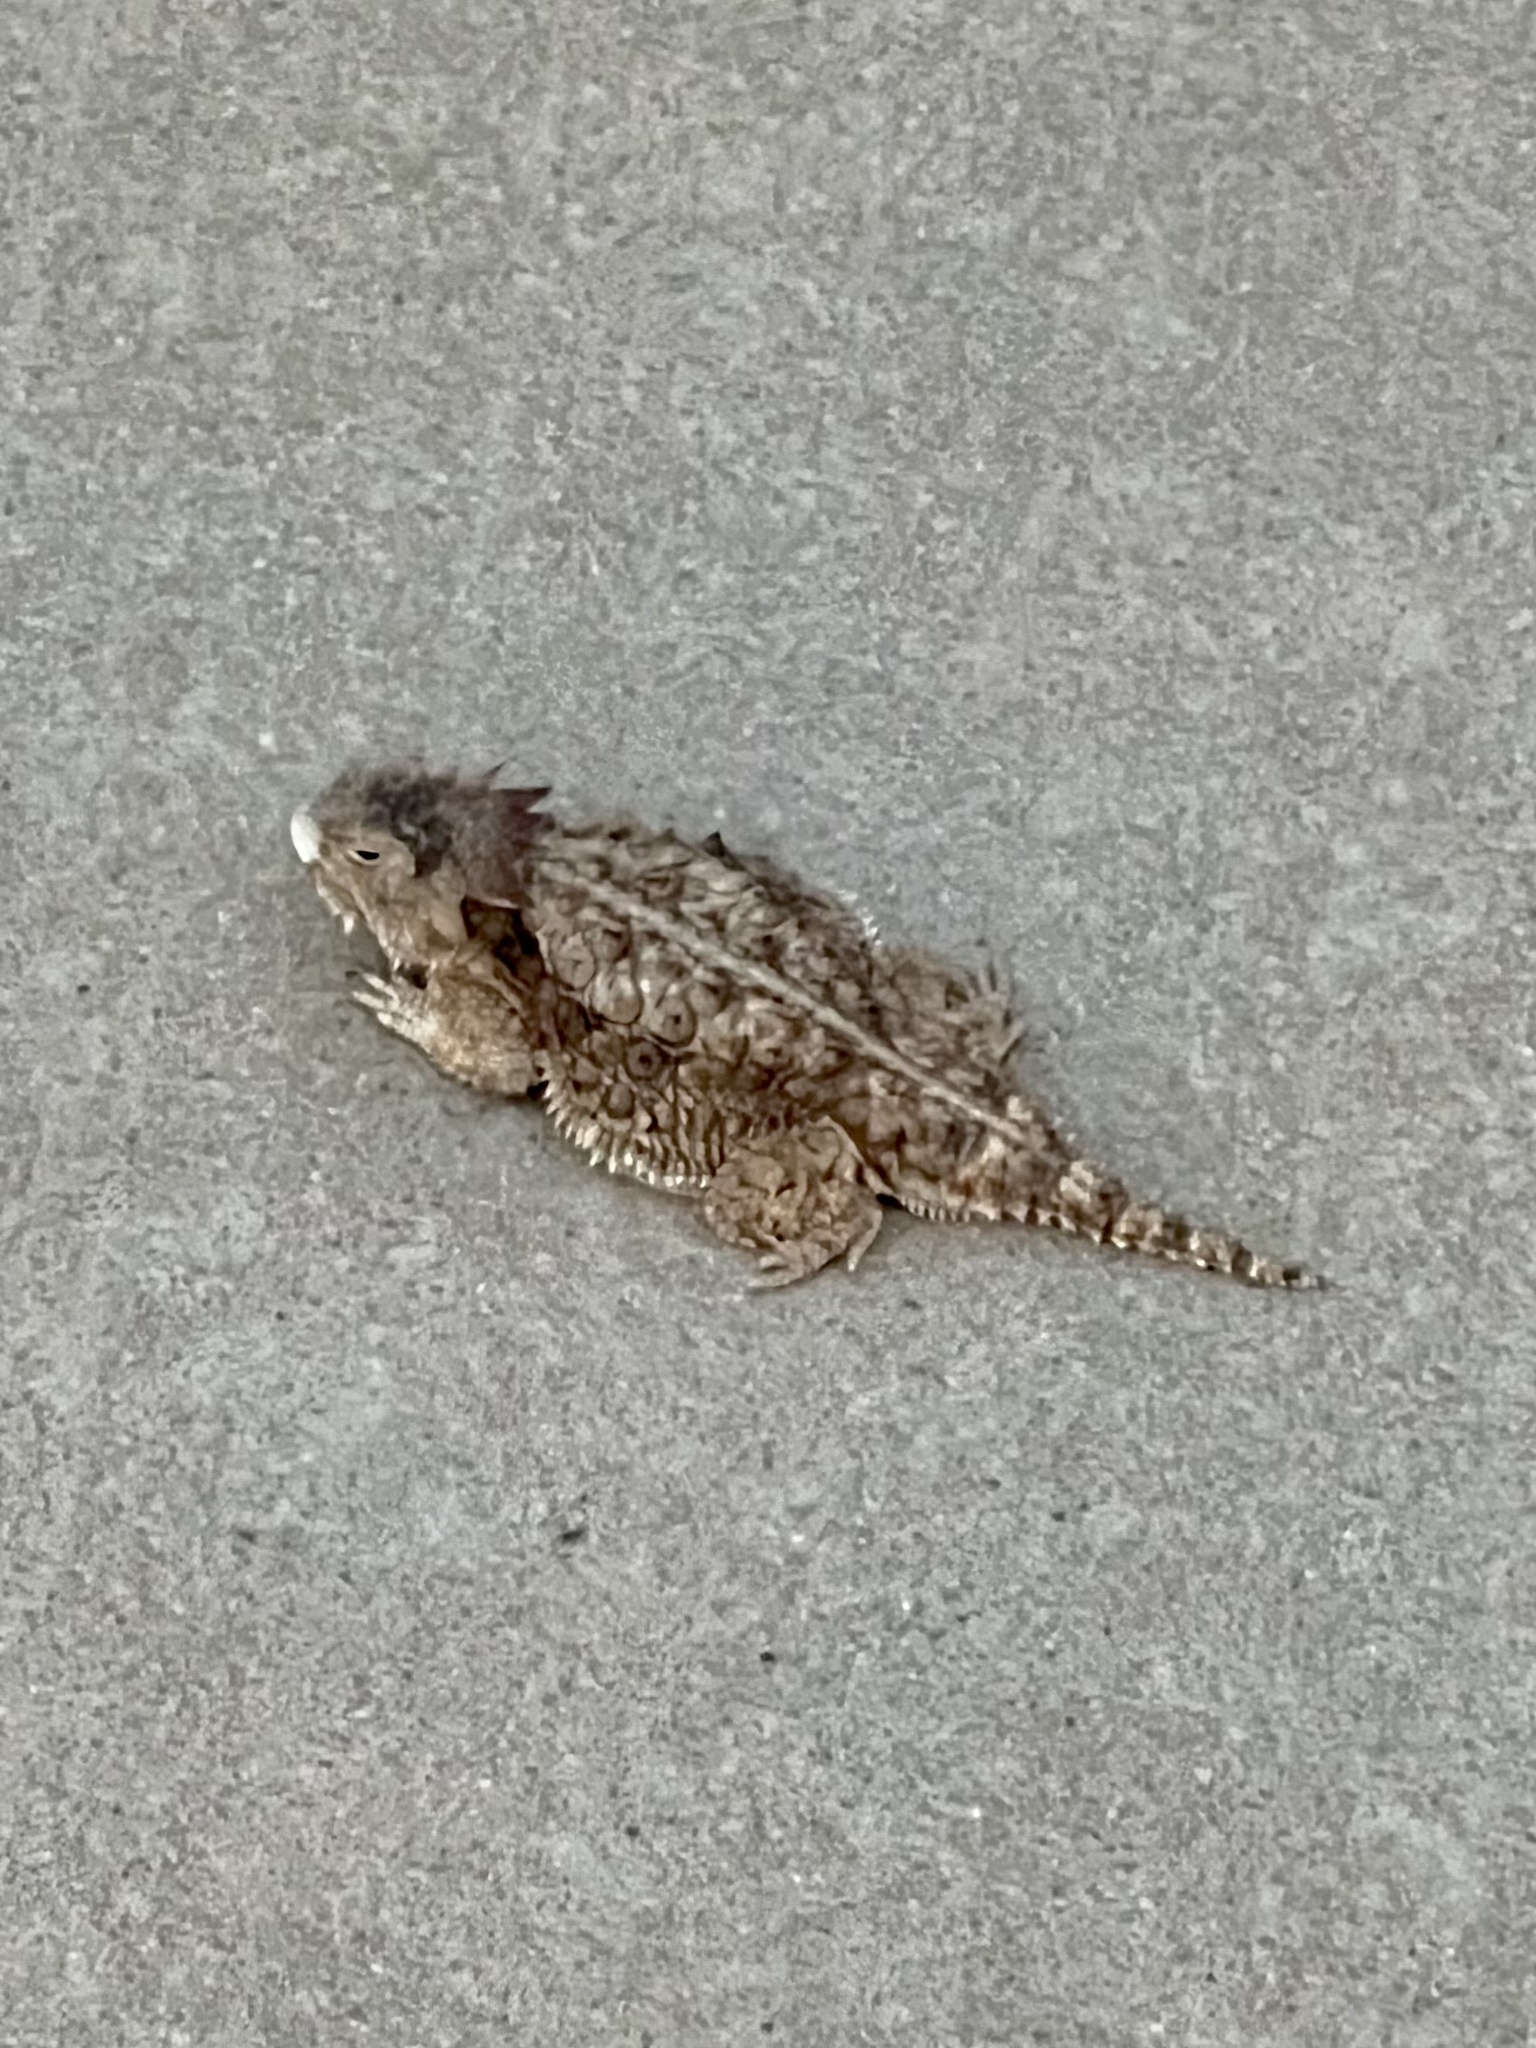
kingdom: Animalia
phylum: Chordata
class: Squamata
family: Phrynosomatidae
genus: Phrynosoma
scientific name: Phrynosoma solare
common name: Regal horned lizard
